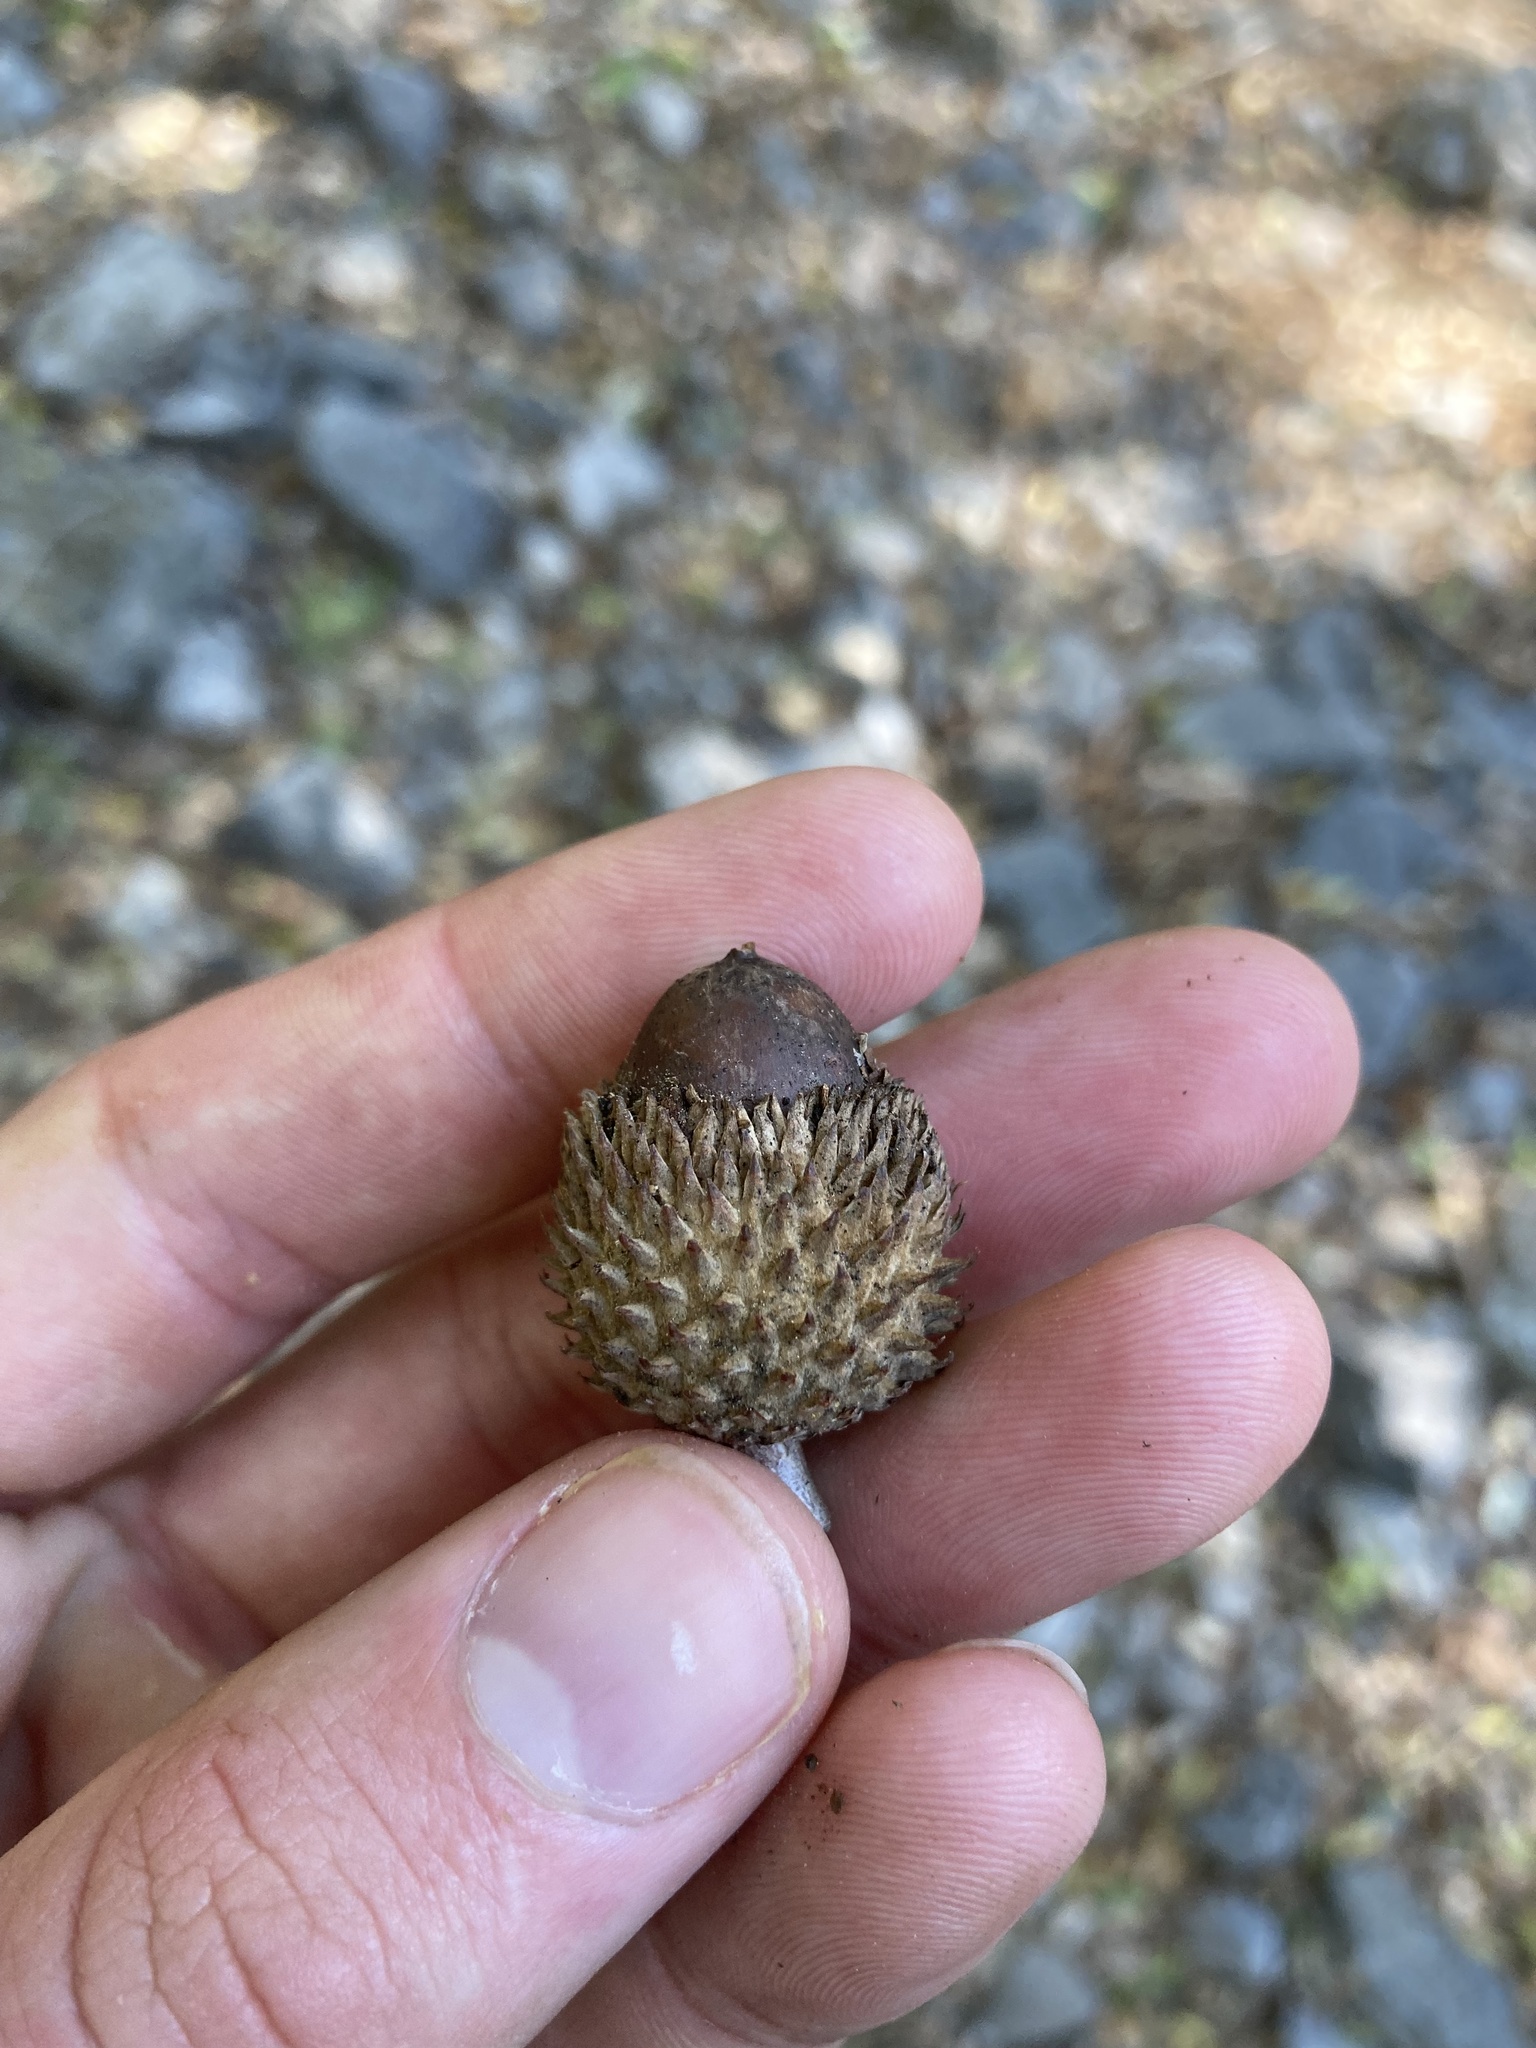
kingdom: Plantae
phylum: Tracheophyta
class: Magnoliopsida
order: Fagales
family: Fagaceae
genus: Quercus
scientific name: Quercus coccifera
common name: Kermes oak
